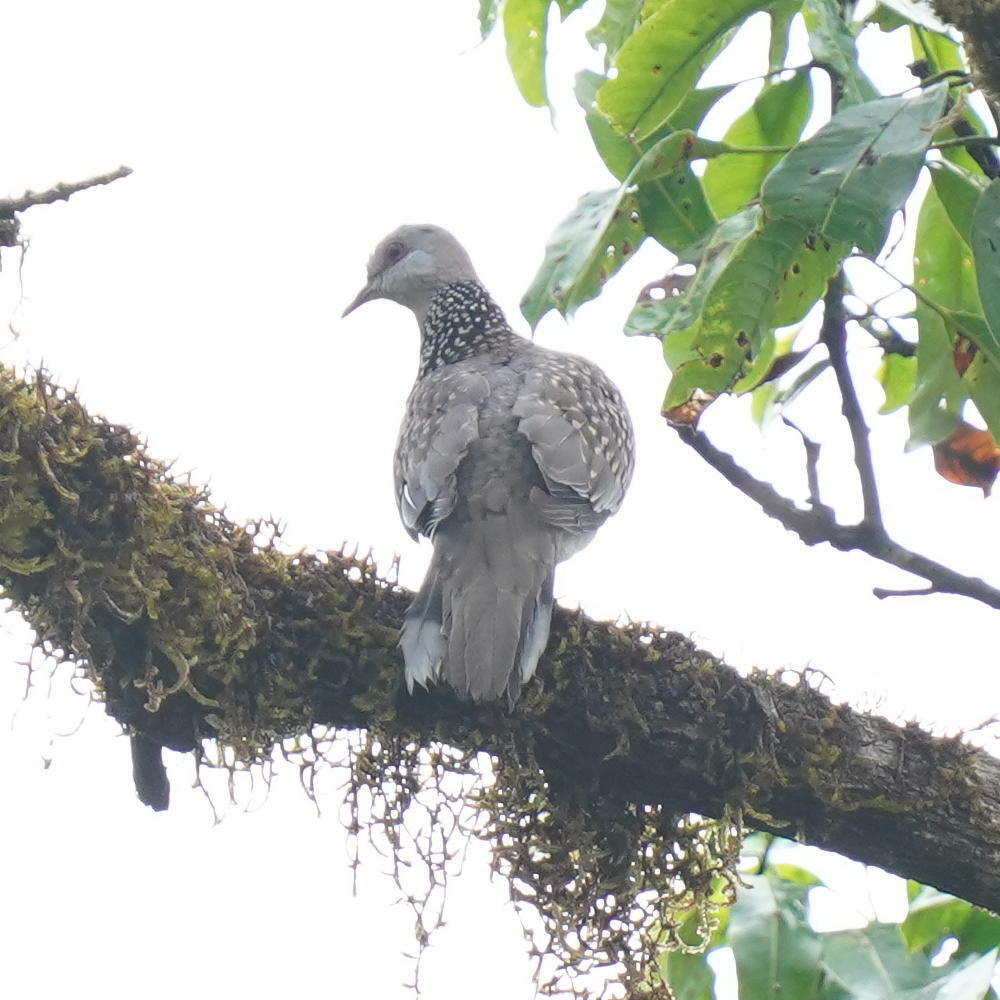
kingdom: Animalia
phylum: Chordata
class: Aves
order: Columbiformes
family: Columbidae
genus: Spilopelia
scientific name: Spilopelia chinensis
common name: Spotted dove
